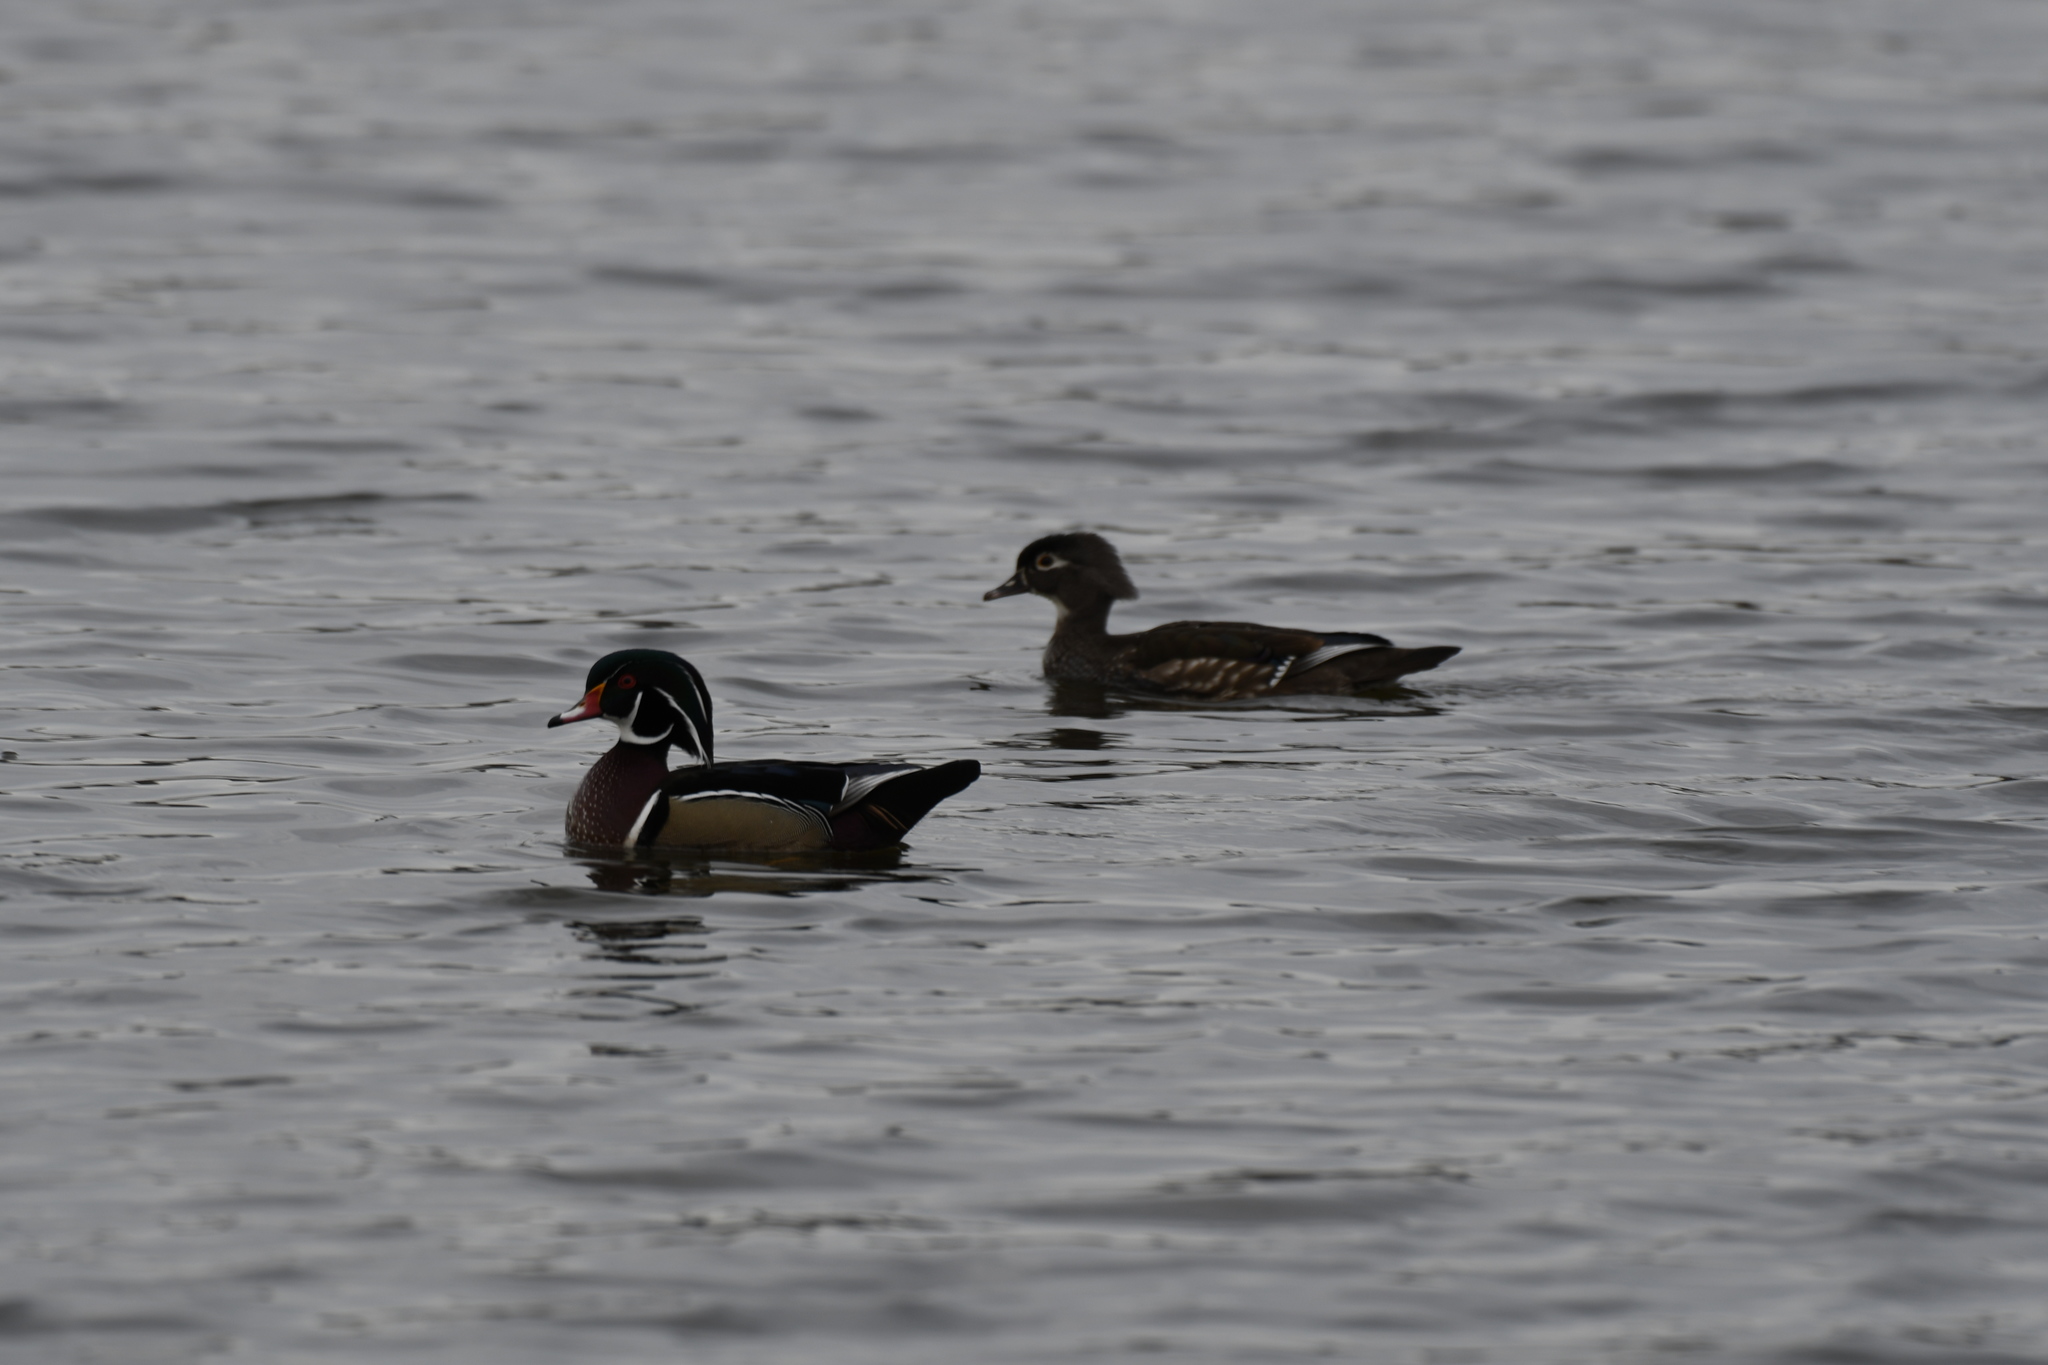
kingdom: Animalia
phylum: Chordata
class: Aves
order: Anseriformes
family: Anatidae
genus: Aix
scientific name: Aix sponsa
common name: Wood duck
